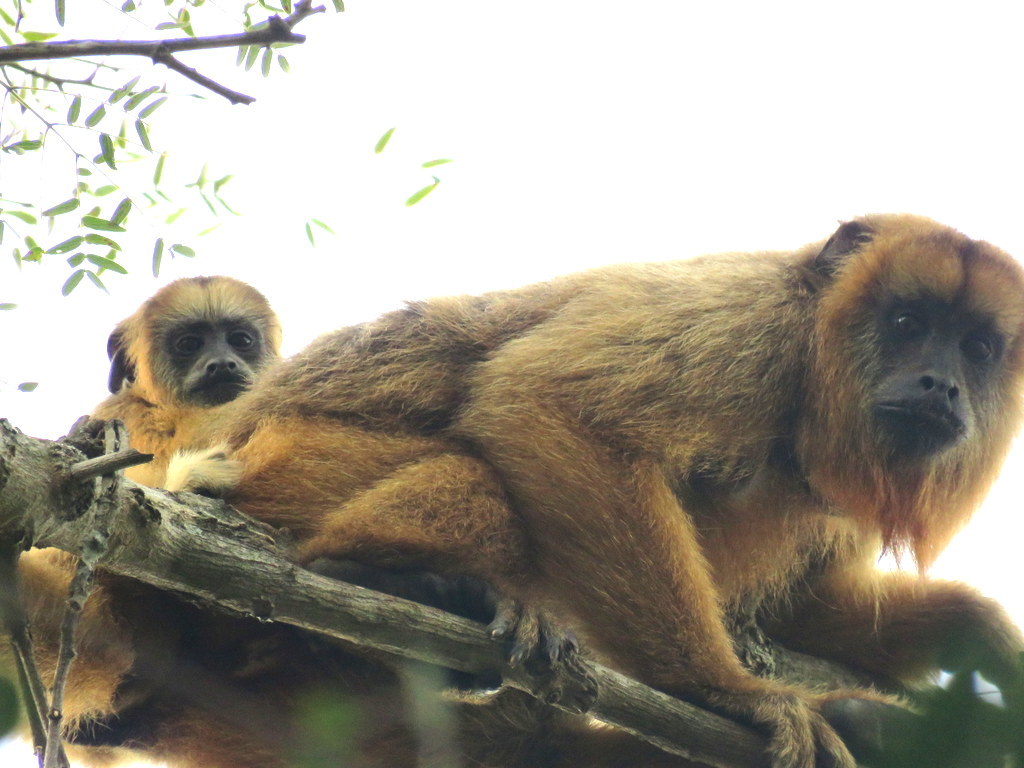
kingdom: Animalia
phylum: Chordata
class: Mammalia
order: Primates
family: Atelidae
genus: Alouatta
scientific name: Alouatta caraya
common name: Black howler
